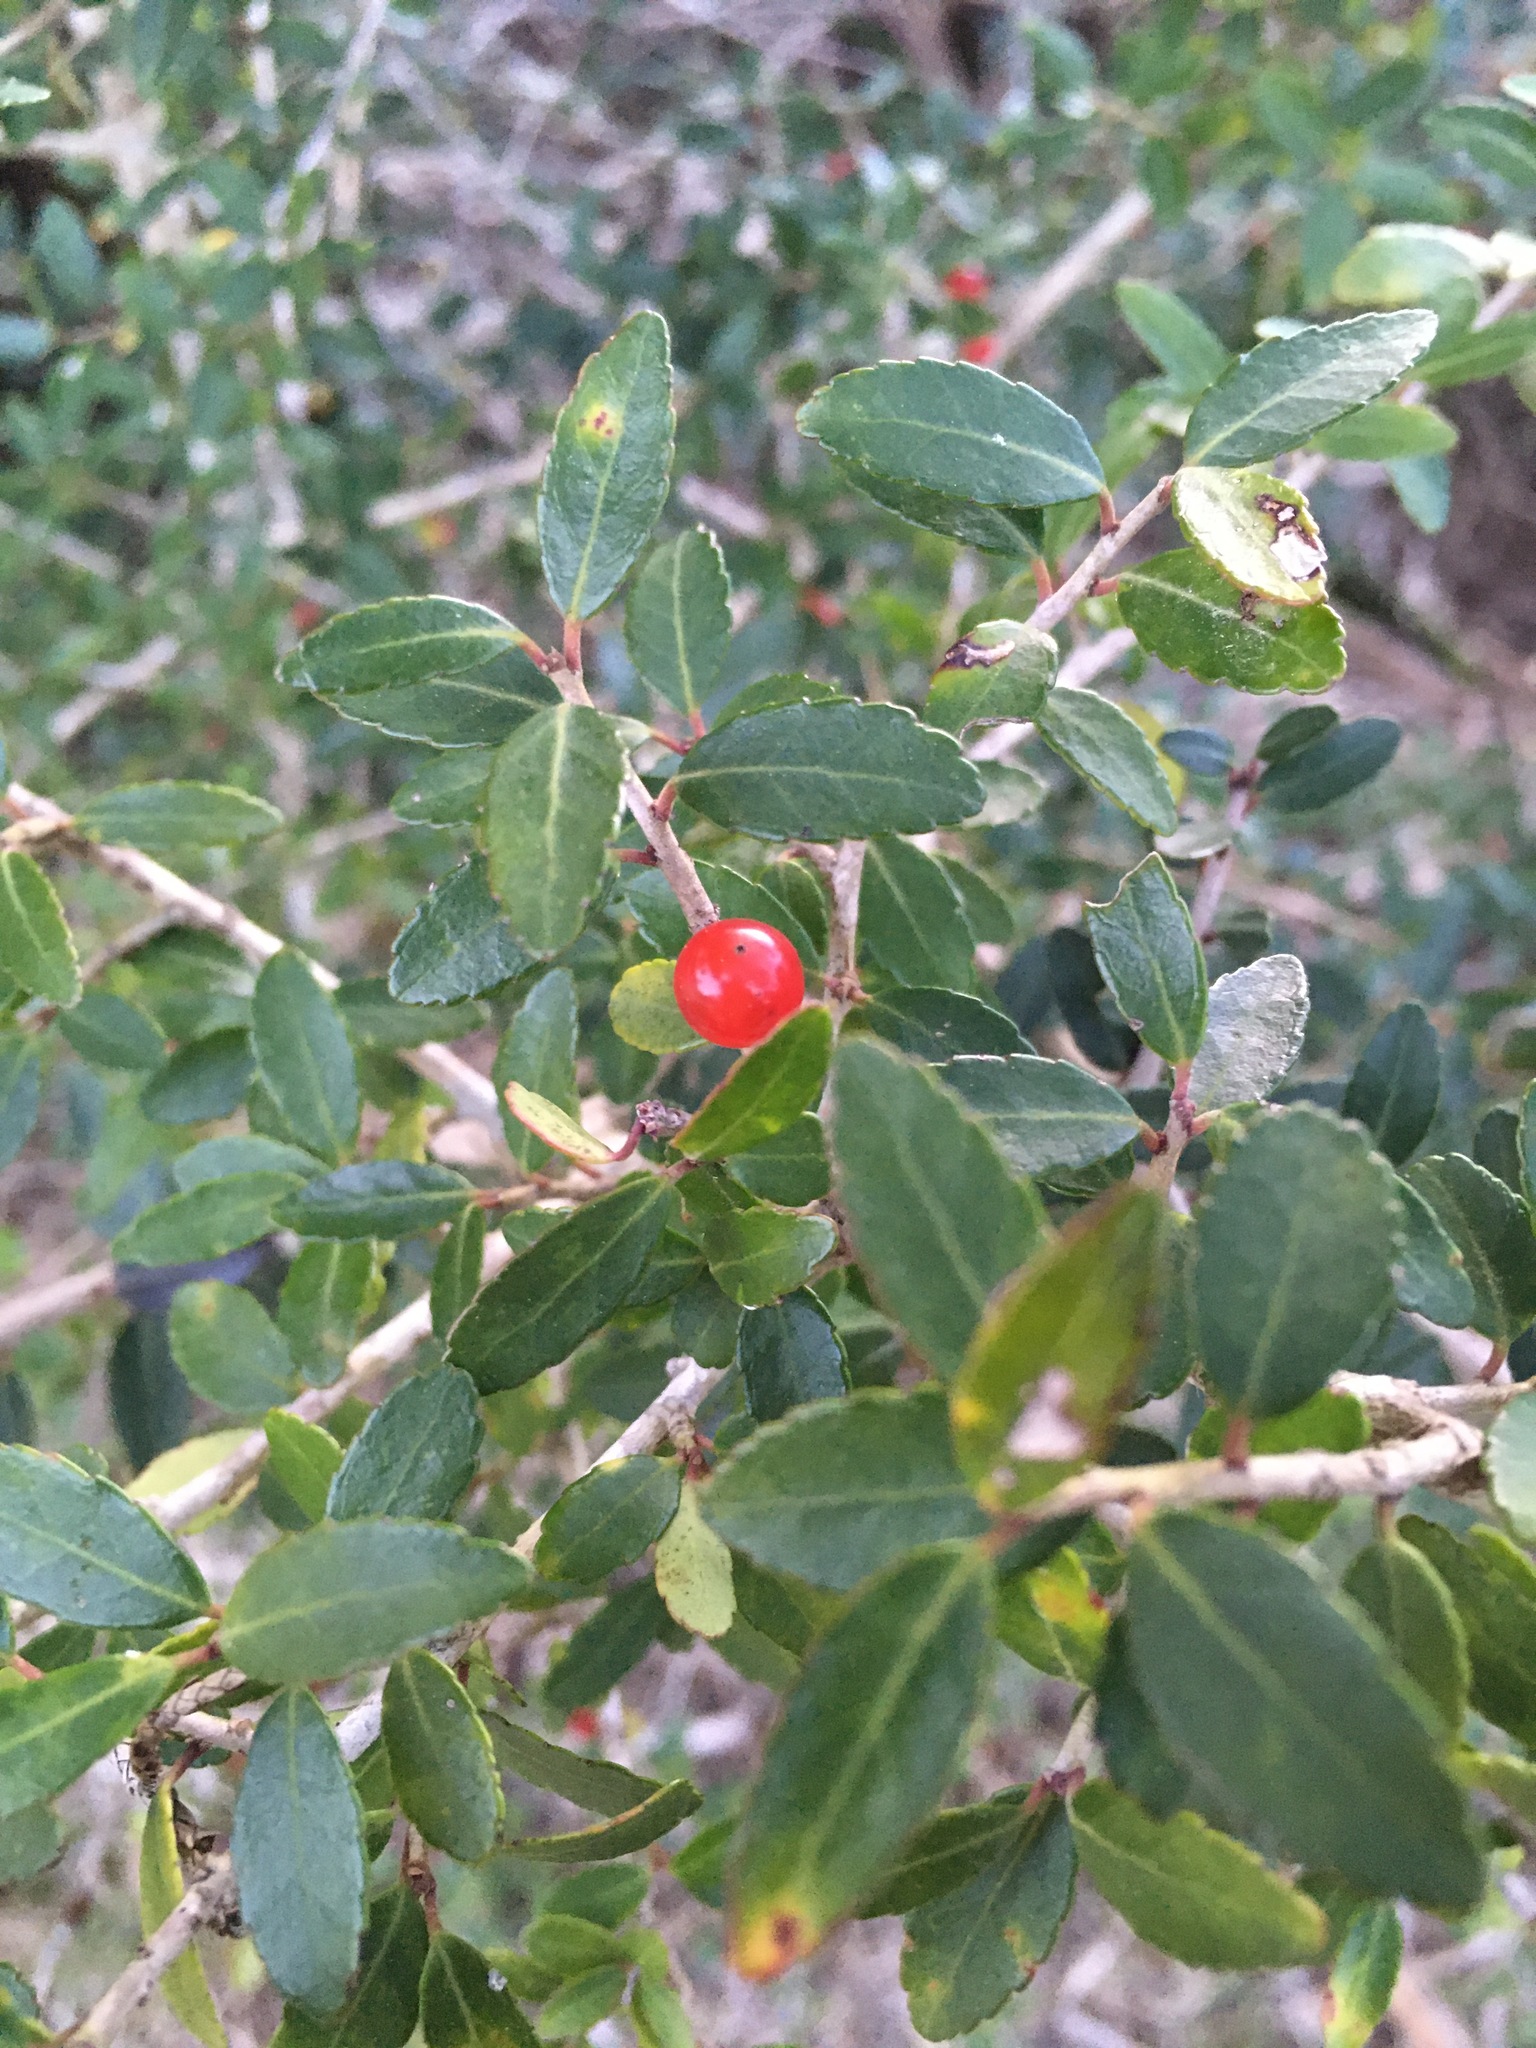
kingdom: Plantae
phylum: Tracheophyta
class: Magnoliopsida
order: Aquifoliales
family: Aquifoliaceae
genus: Ilex
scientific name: Ilex vomitoria
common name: Yaupon holly
